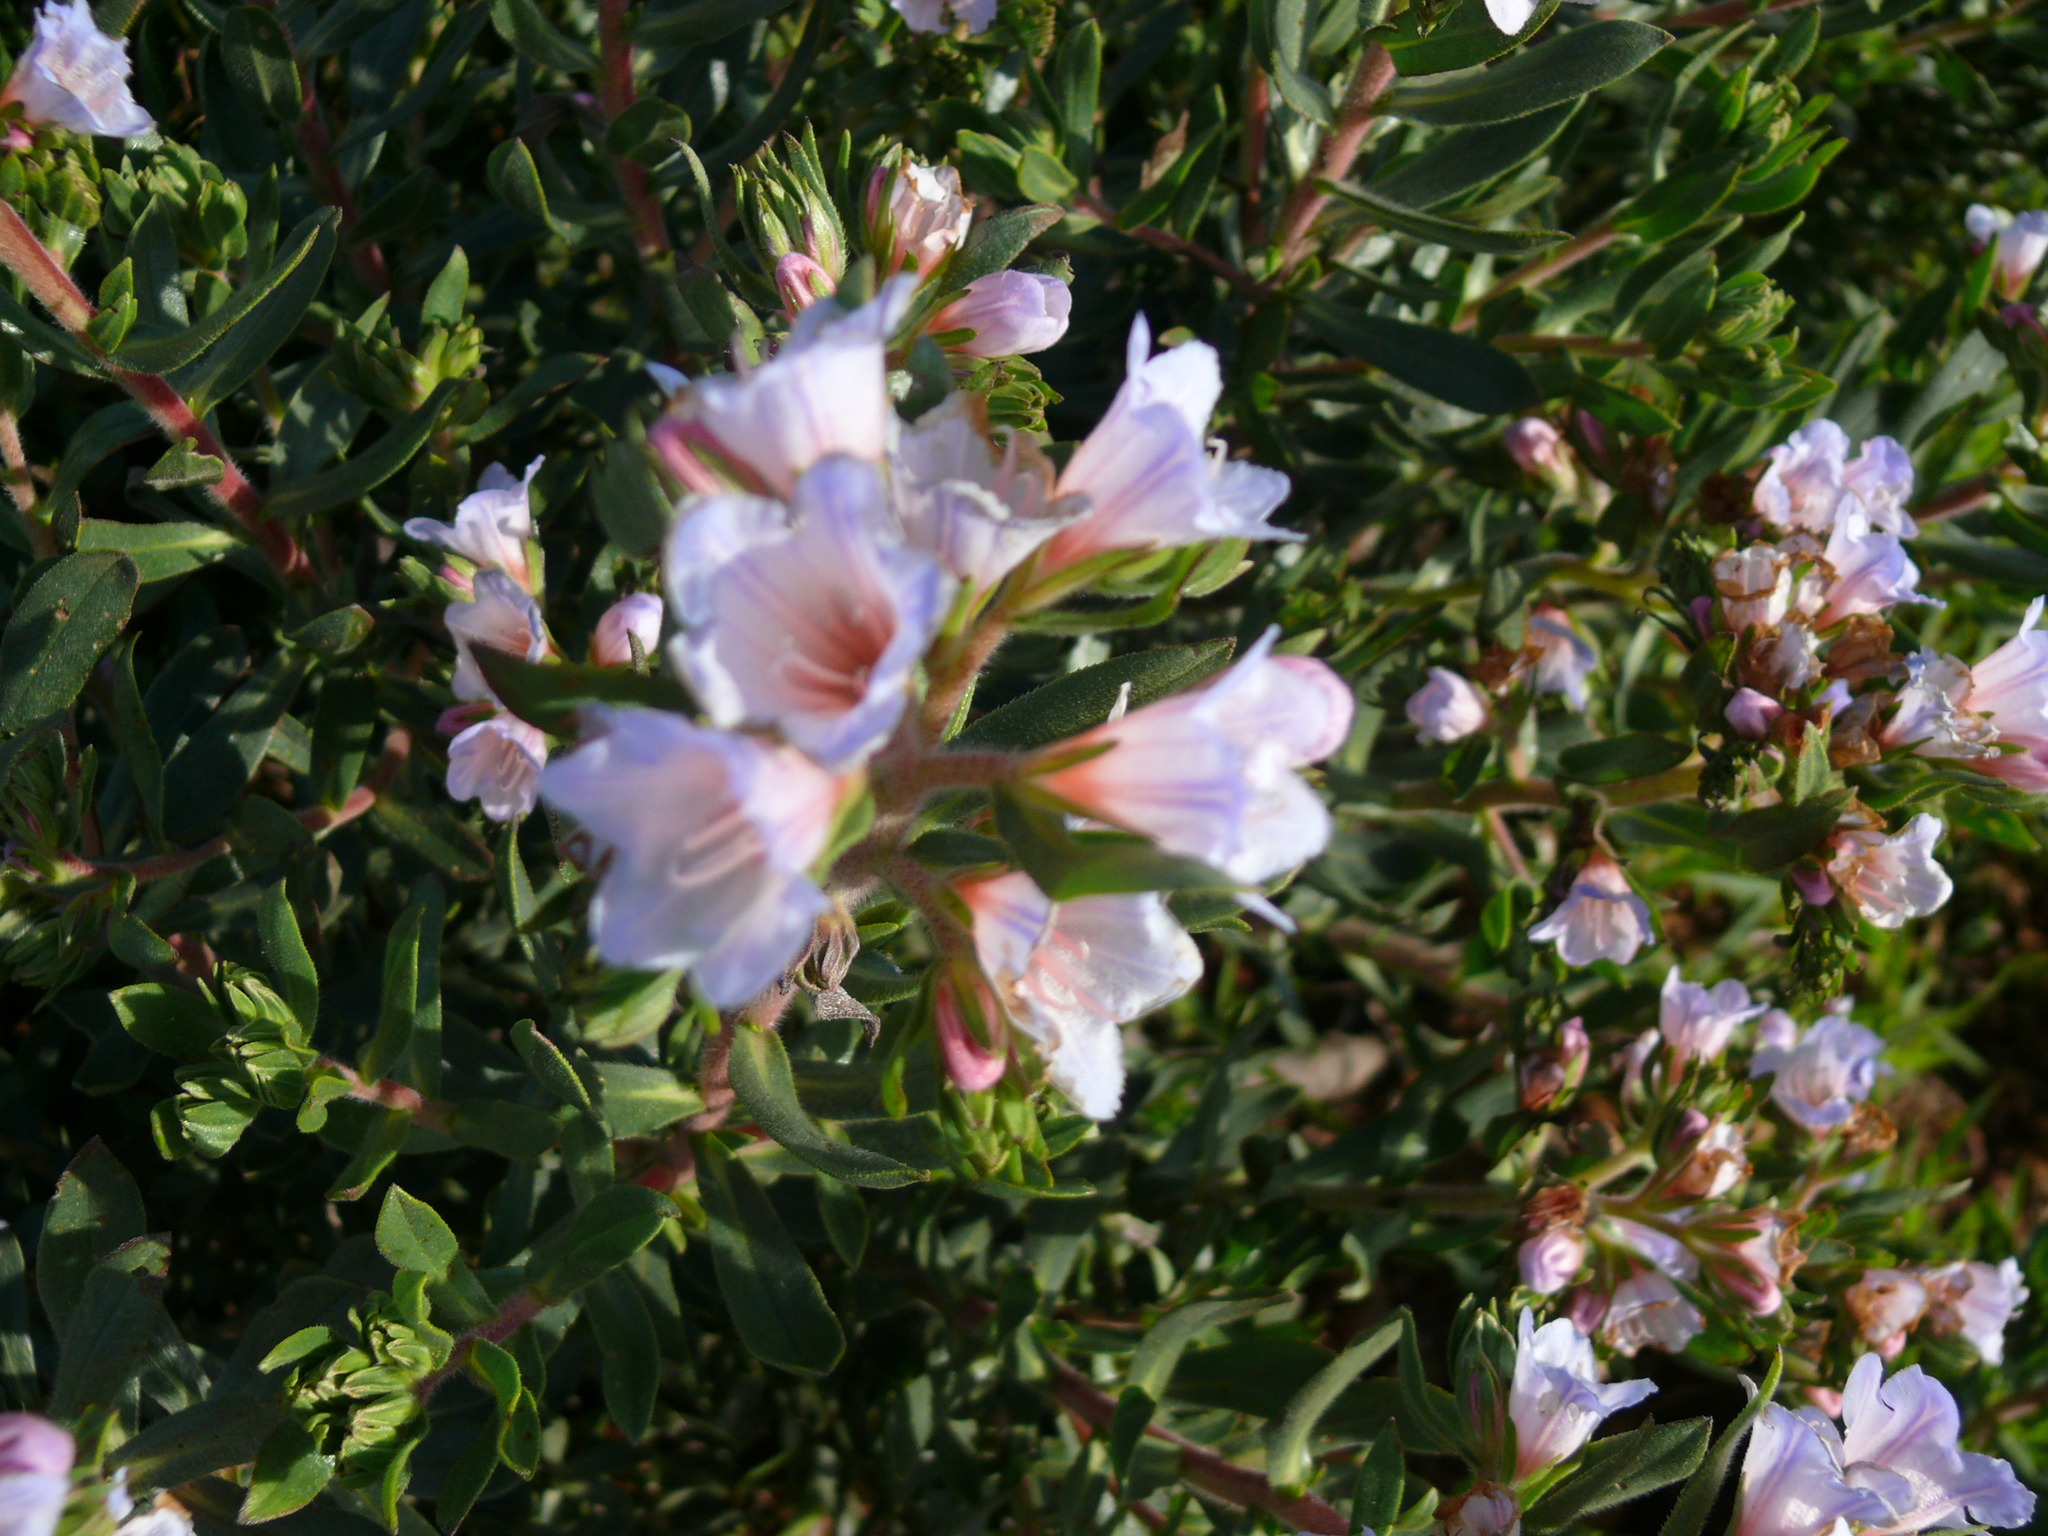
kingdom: Plantae
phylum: Tracheophyta
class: Magnoliopsida
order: Boraginales
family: Boraginaceae
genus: Lobostemon
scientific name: Lobostemon fruticosus
